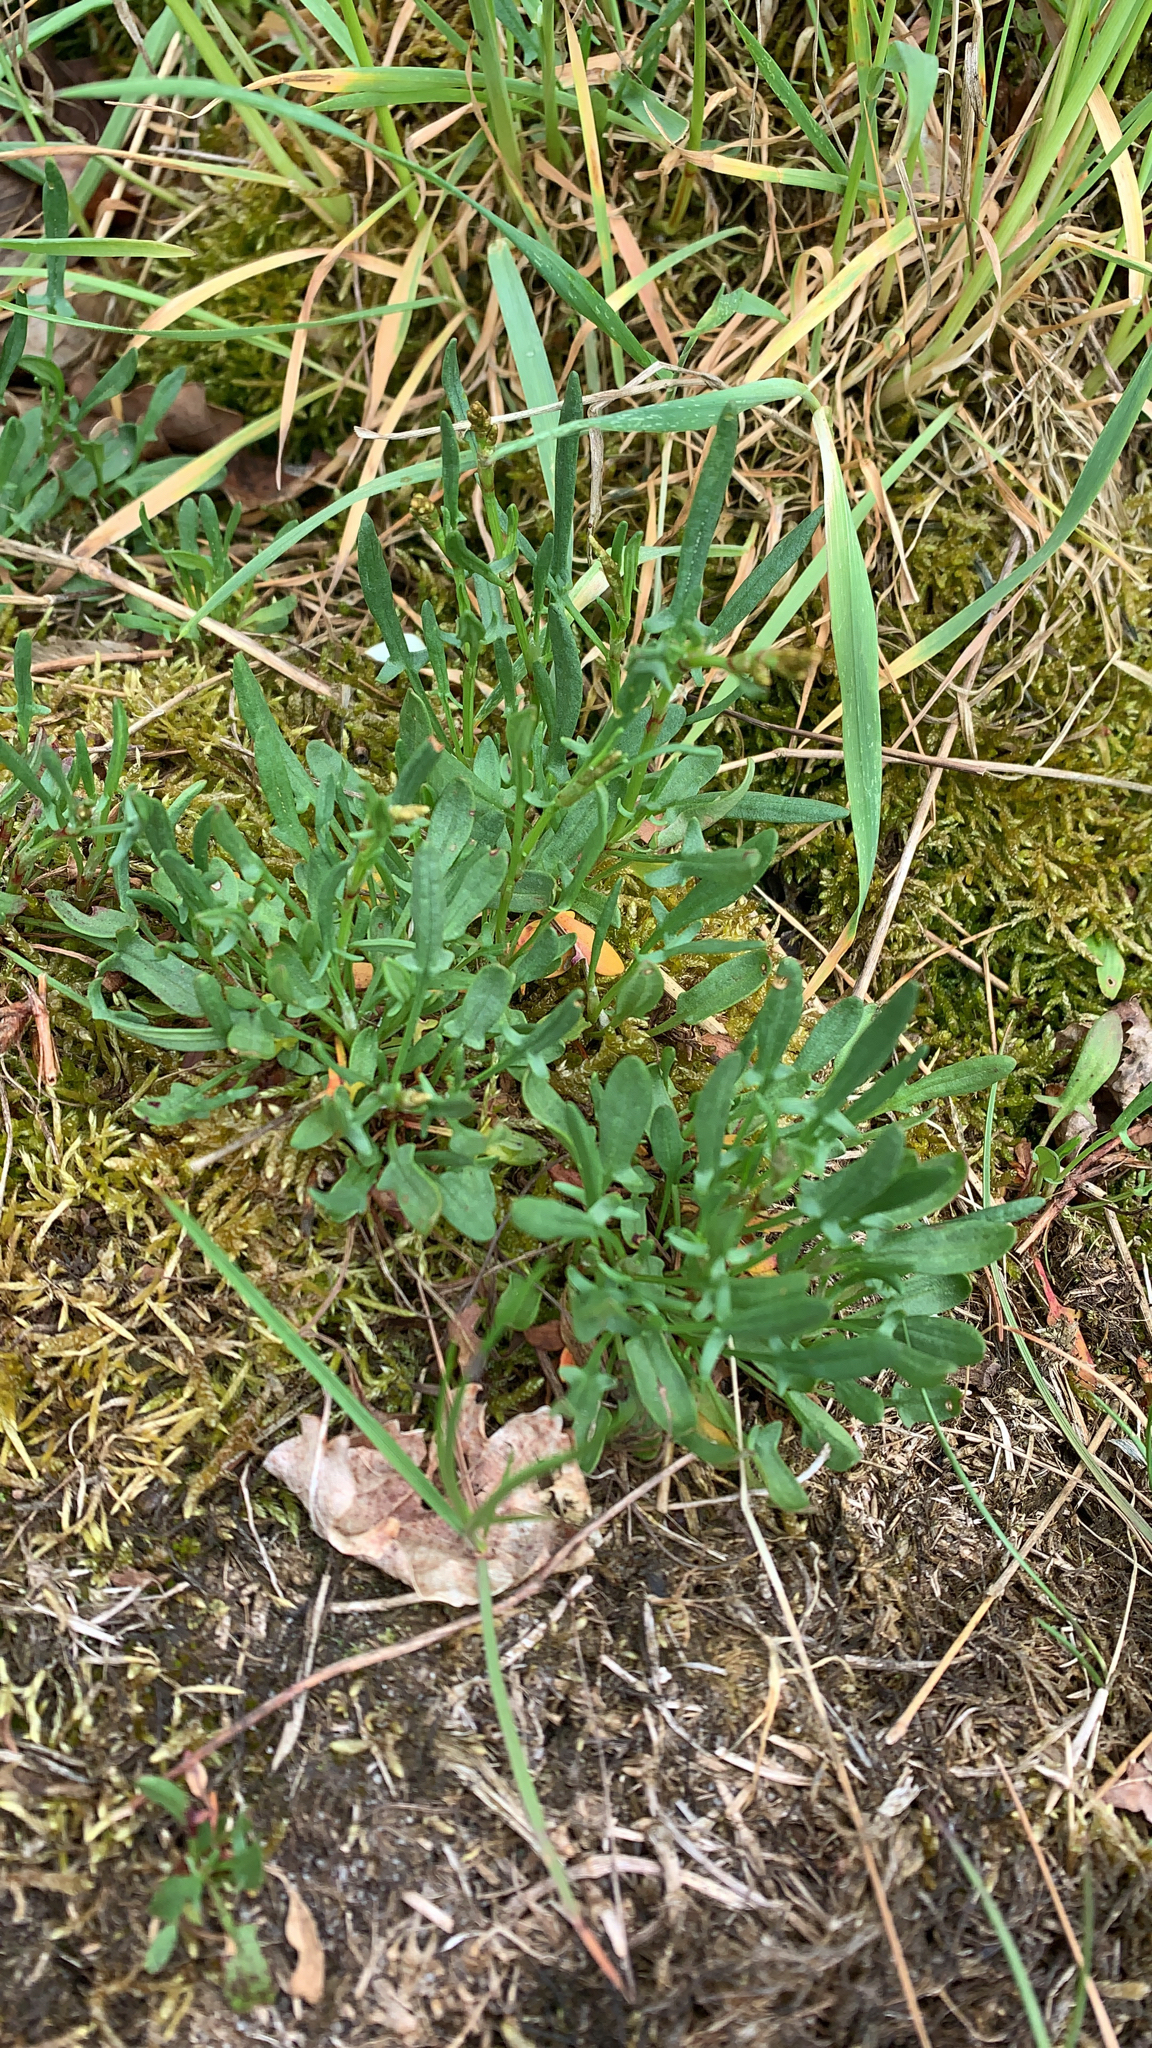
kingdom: Plantae
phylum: Tracheophyta
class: Magnoliopsida
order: Caryophyllales
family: Polygonaceae
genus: Rumex
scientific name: Rumex acetosella
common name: Common sheep sorrel
